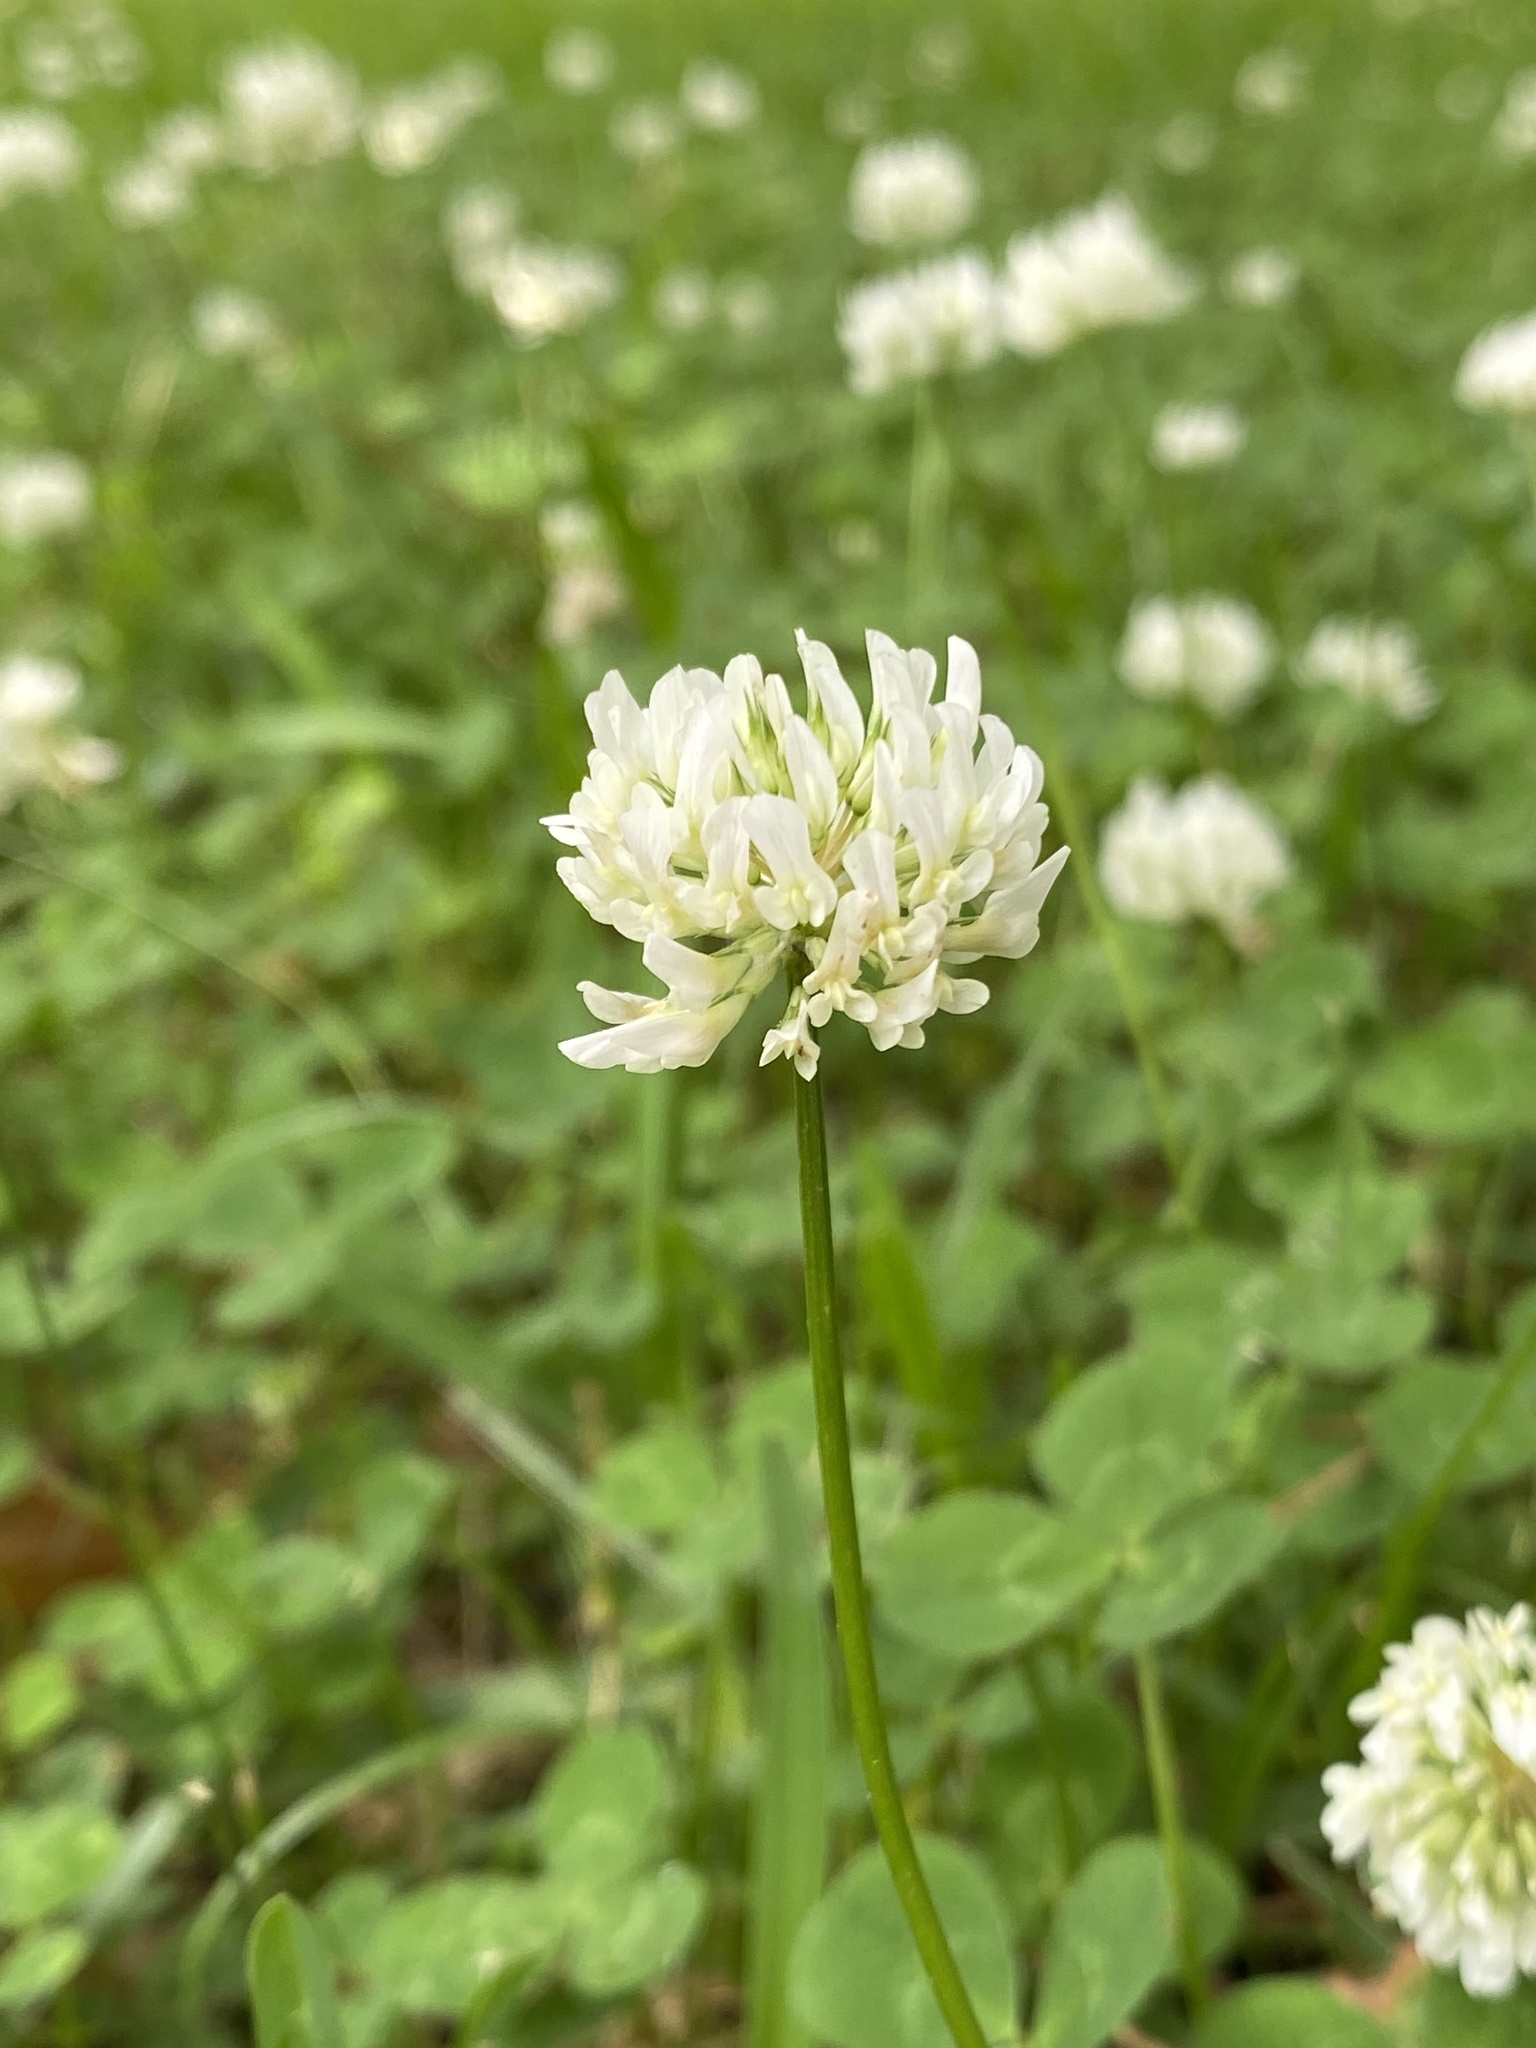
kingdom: Plantae
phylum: Tracheophyta
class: Magnoliopsida
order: Fabales
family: Fabaceae
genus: Trifolium
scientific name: Trifolium repens
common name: White clover
